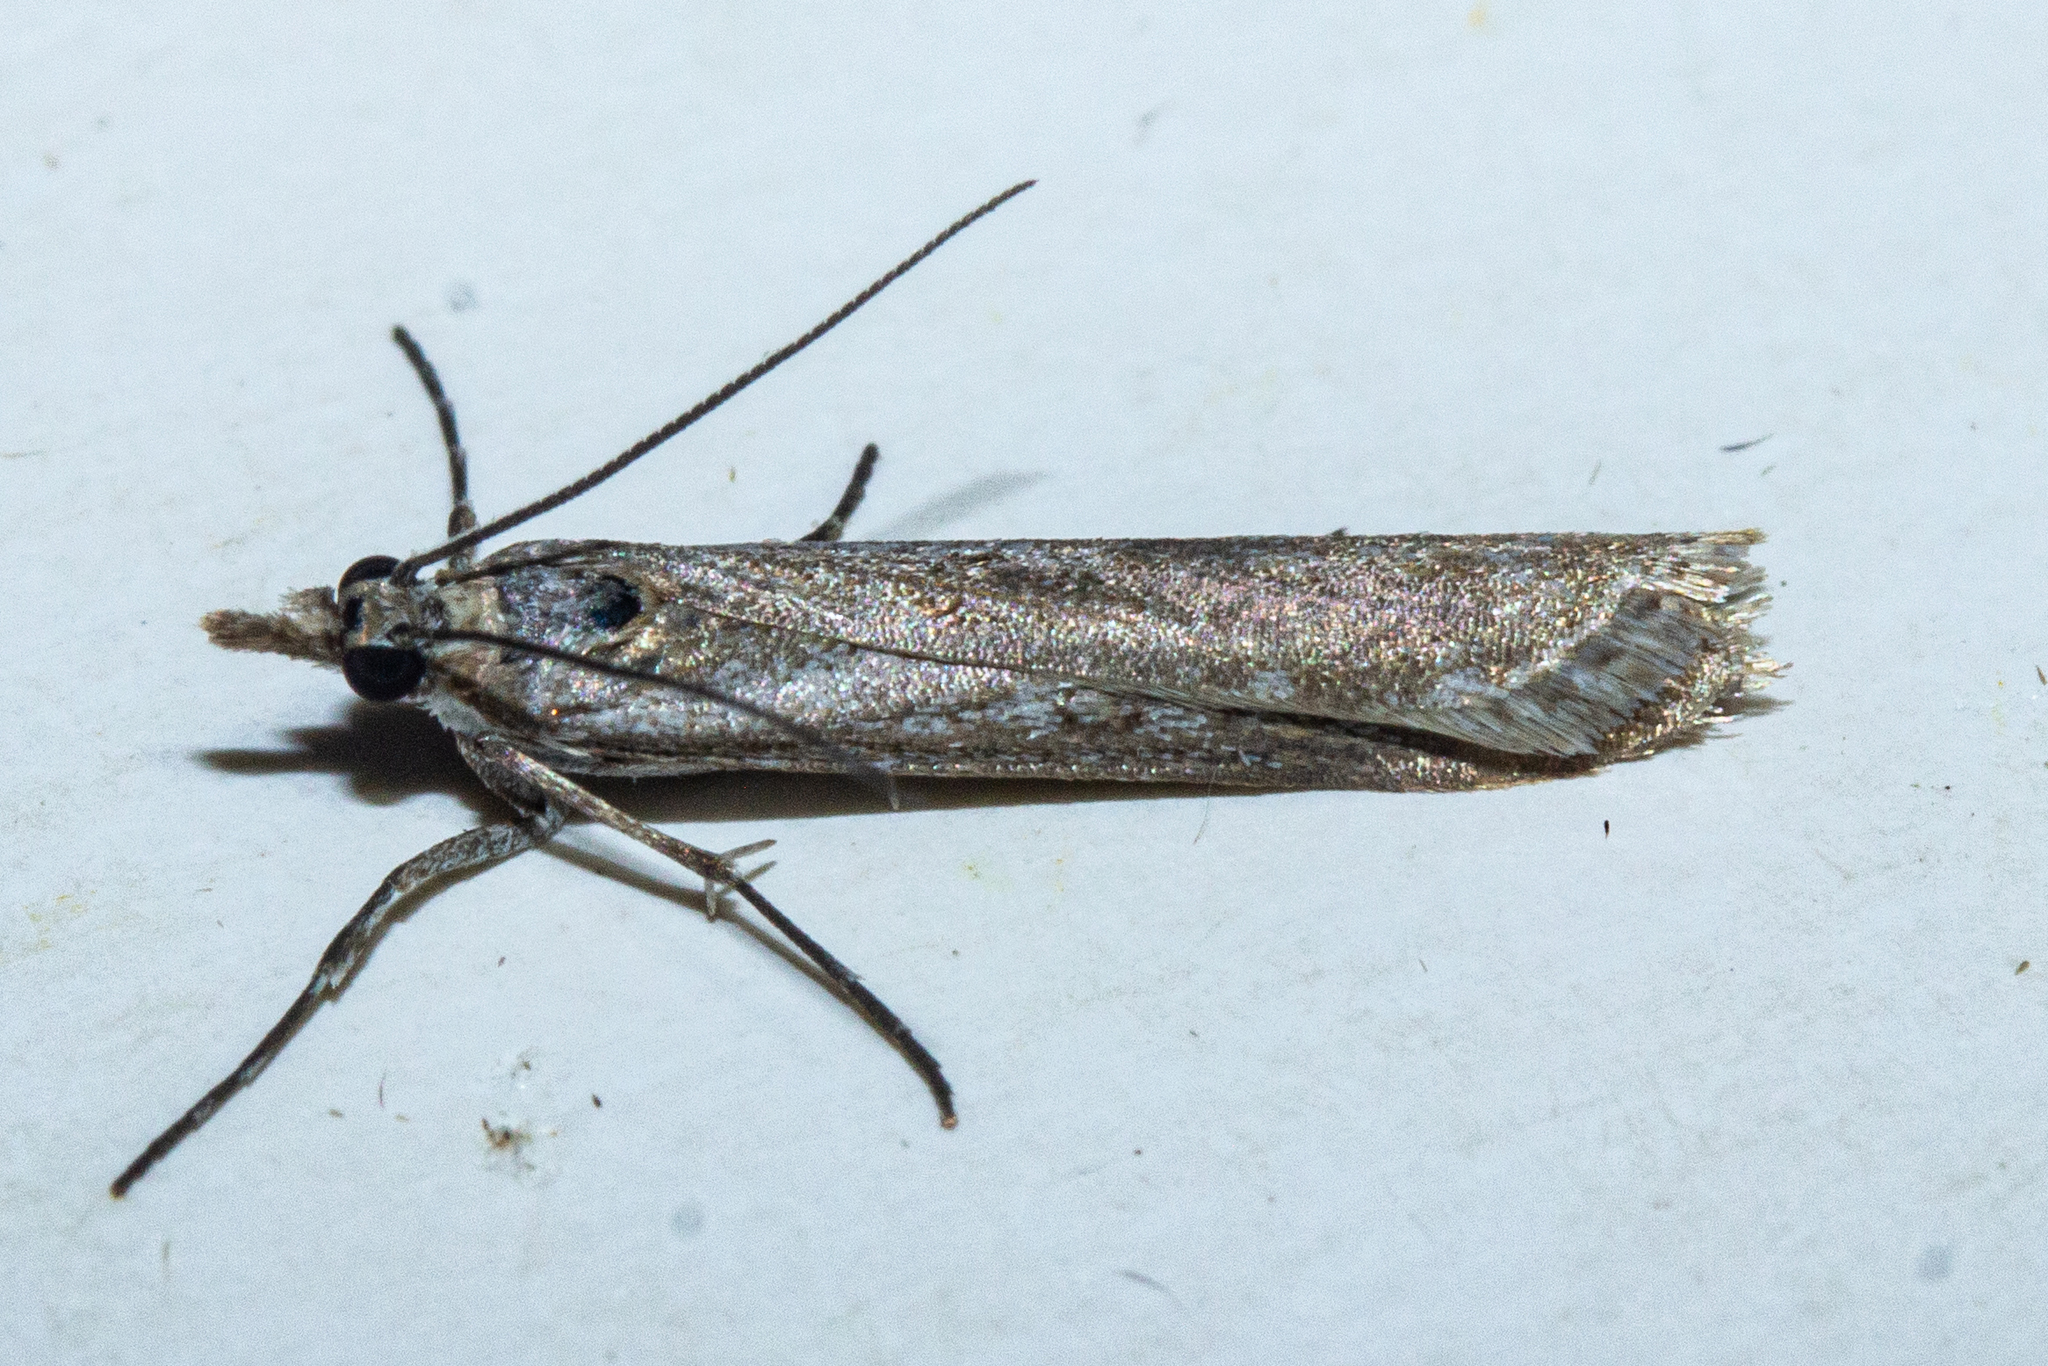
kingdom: Animalia
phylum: Arthropoda
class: Insecta
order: Lepidoptera
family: Crambidae
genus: Eudonia
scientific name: Eudonia leptalea
